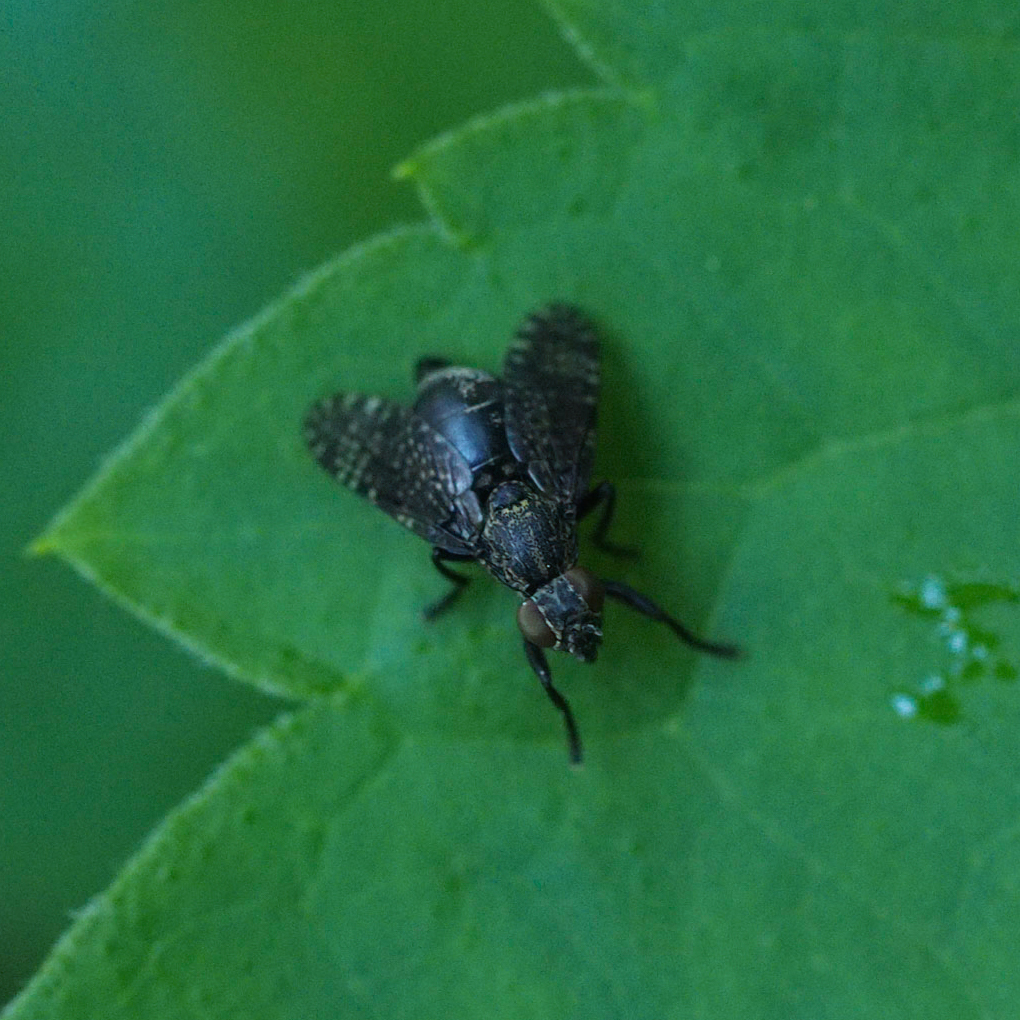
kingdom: Animalia
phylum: Arthropoda
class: Insecta
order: Diptera
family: Platystomatidae
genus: Platystoma
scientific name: Platystoma seminationis
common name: Fly
